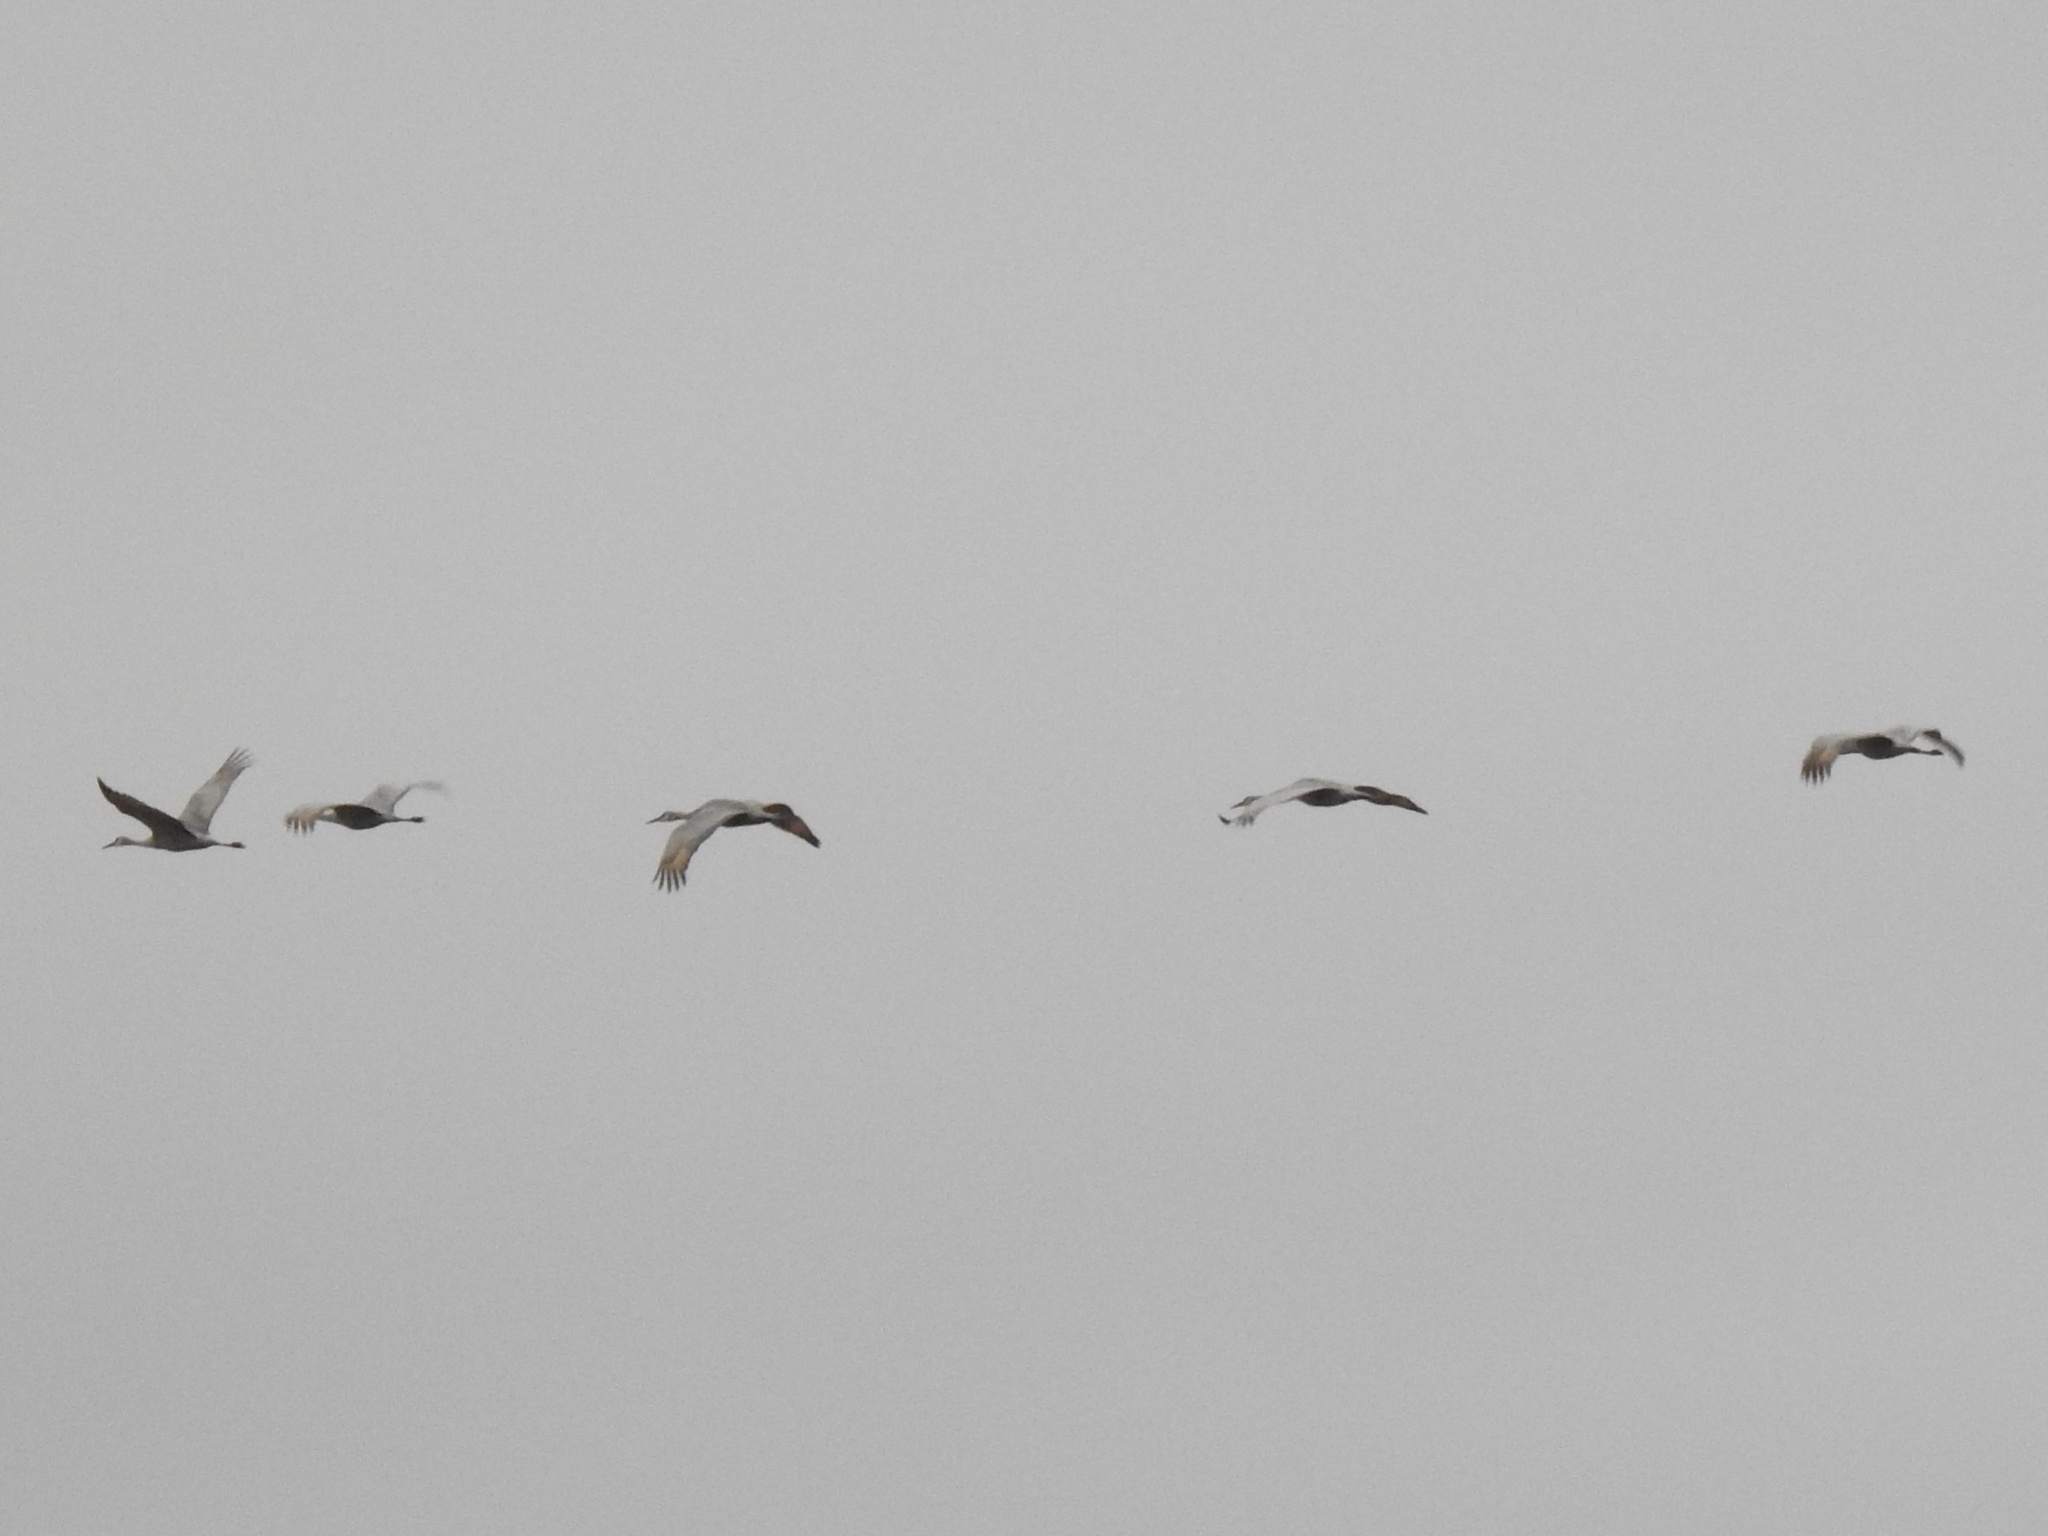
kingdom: Animalia
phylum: Chordata
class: Aves
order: Gruiformes
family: Gruidae
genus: Grus
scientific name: Grus canadensis
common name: Sandhill crane
